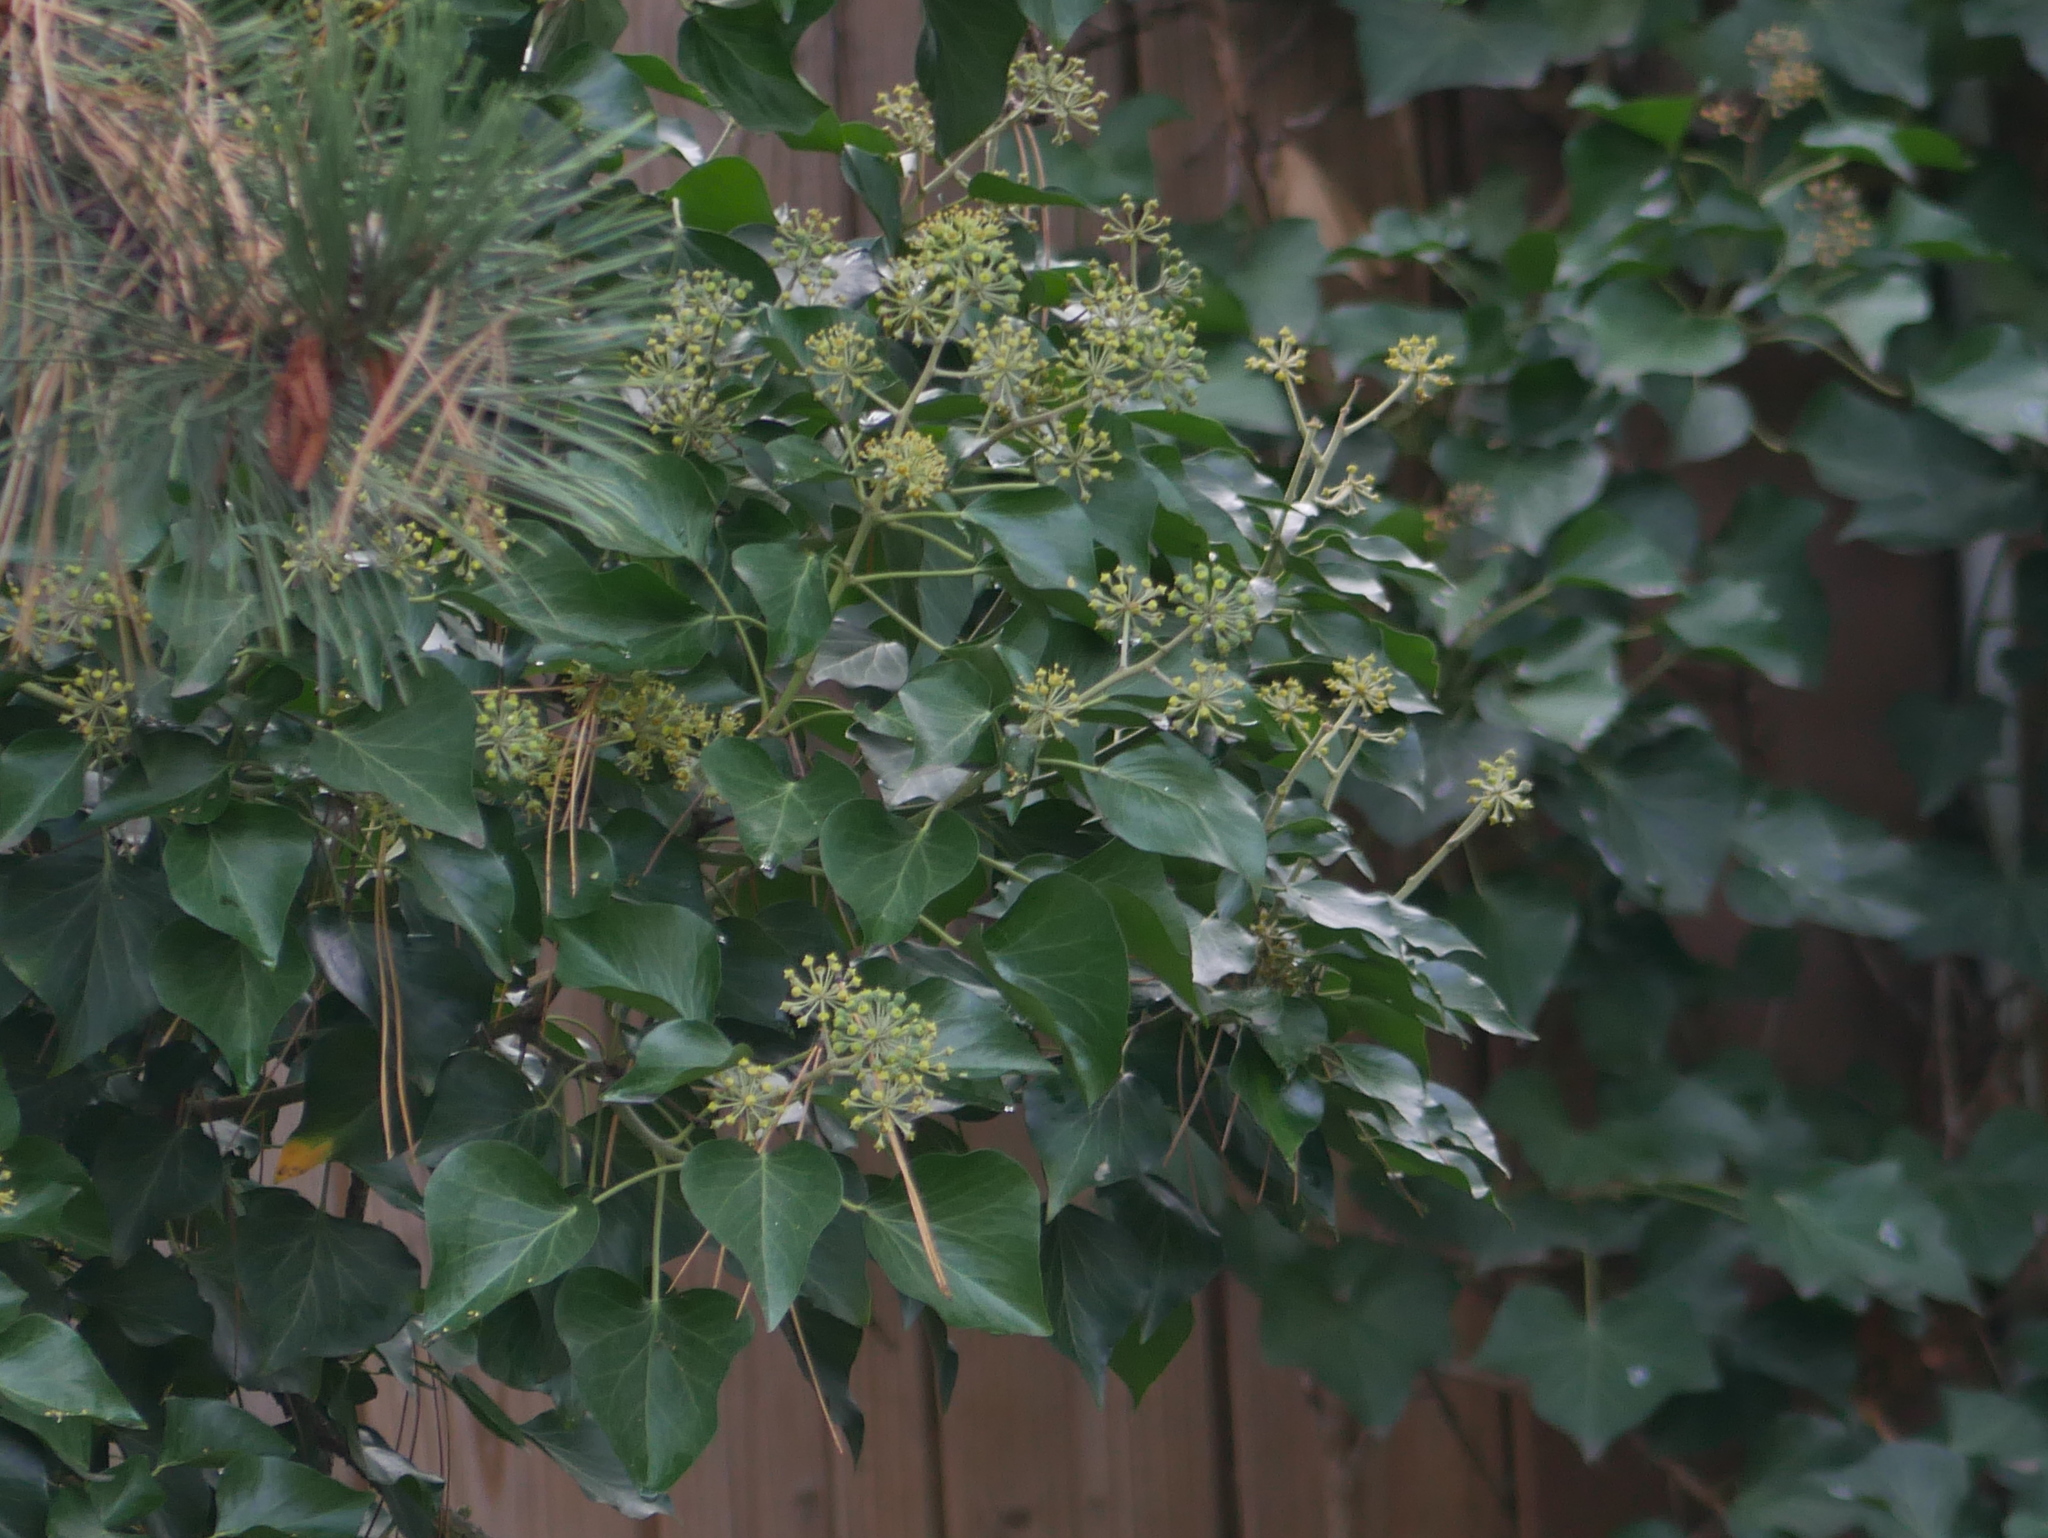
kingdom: Plantae
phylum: Tracheophyta
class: Magnoliopsida
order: Apiales
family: Araliaceae
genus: Hedera
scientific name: Hedera helix
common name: Ivy
